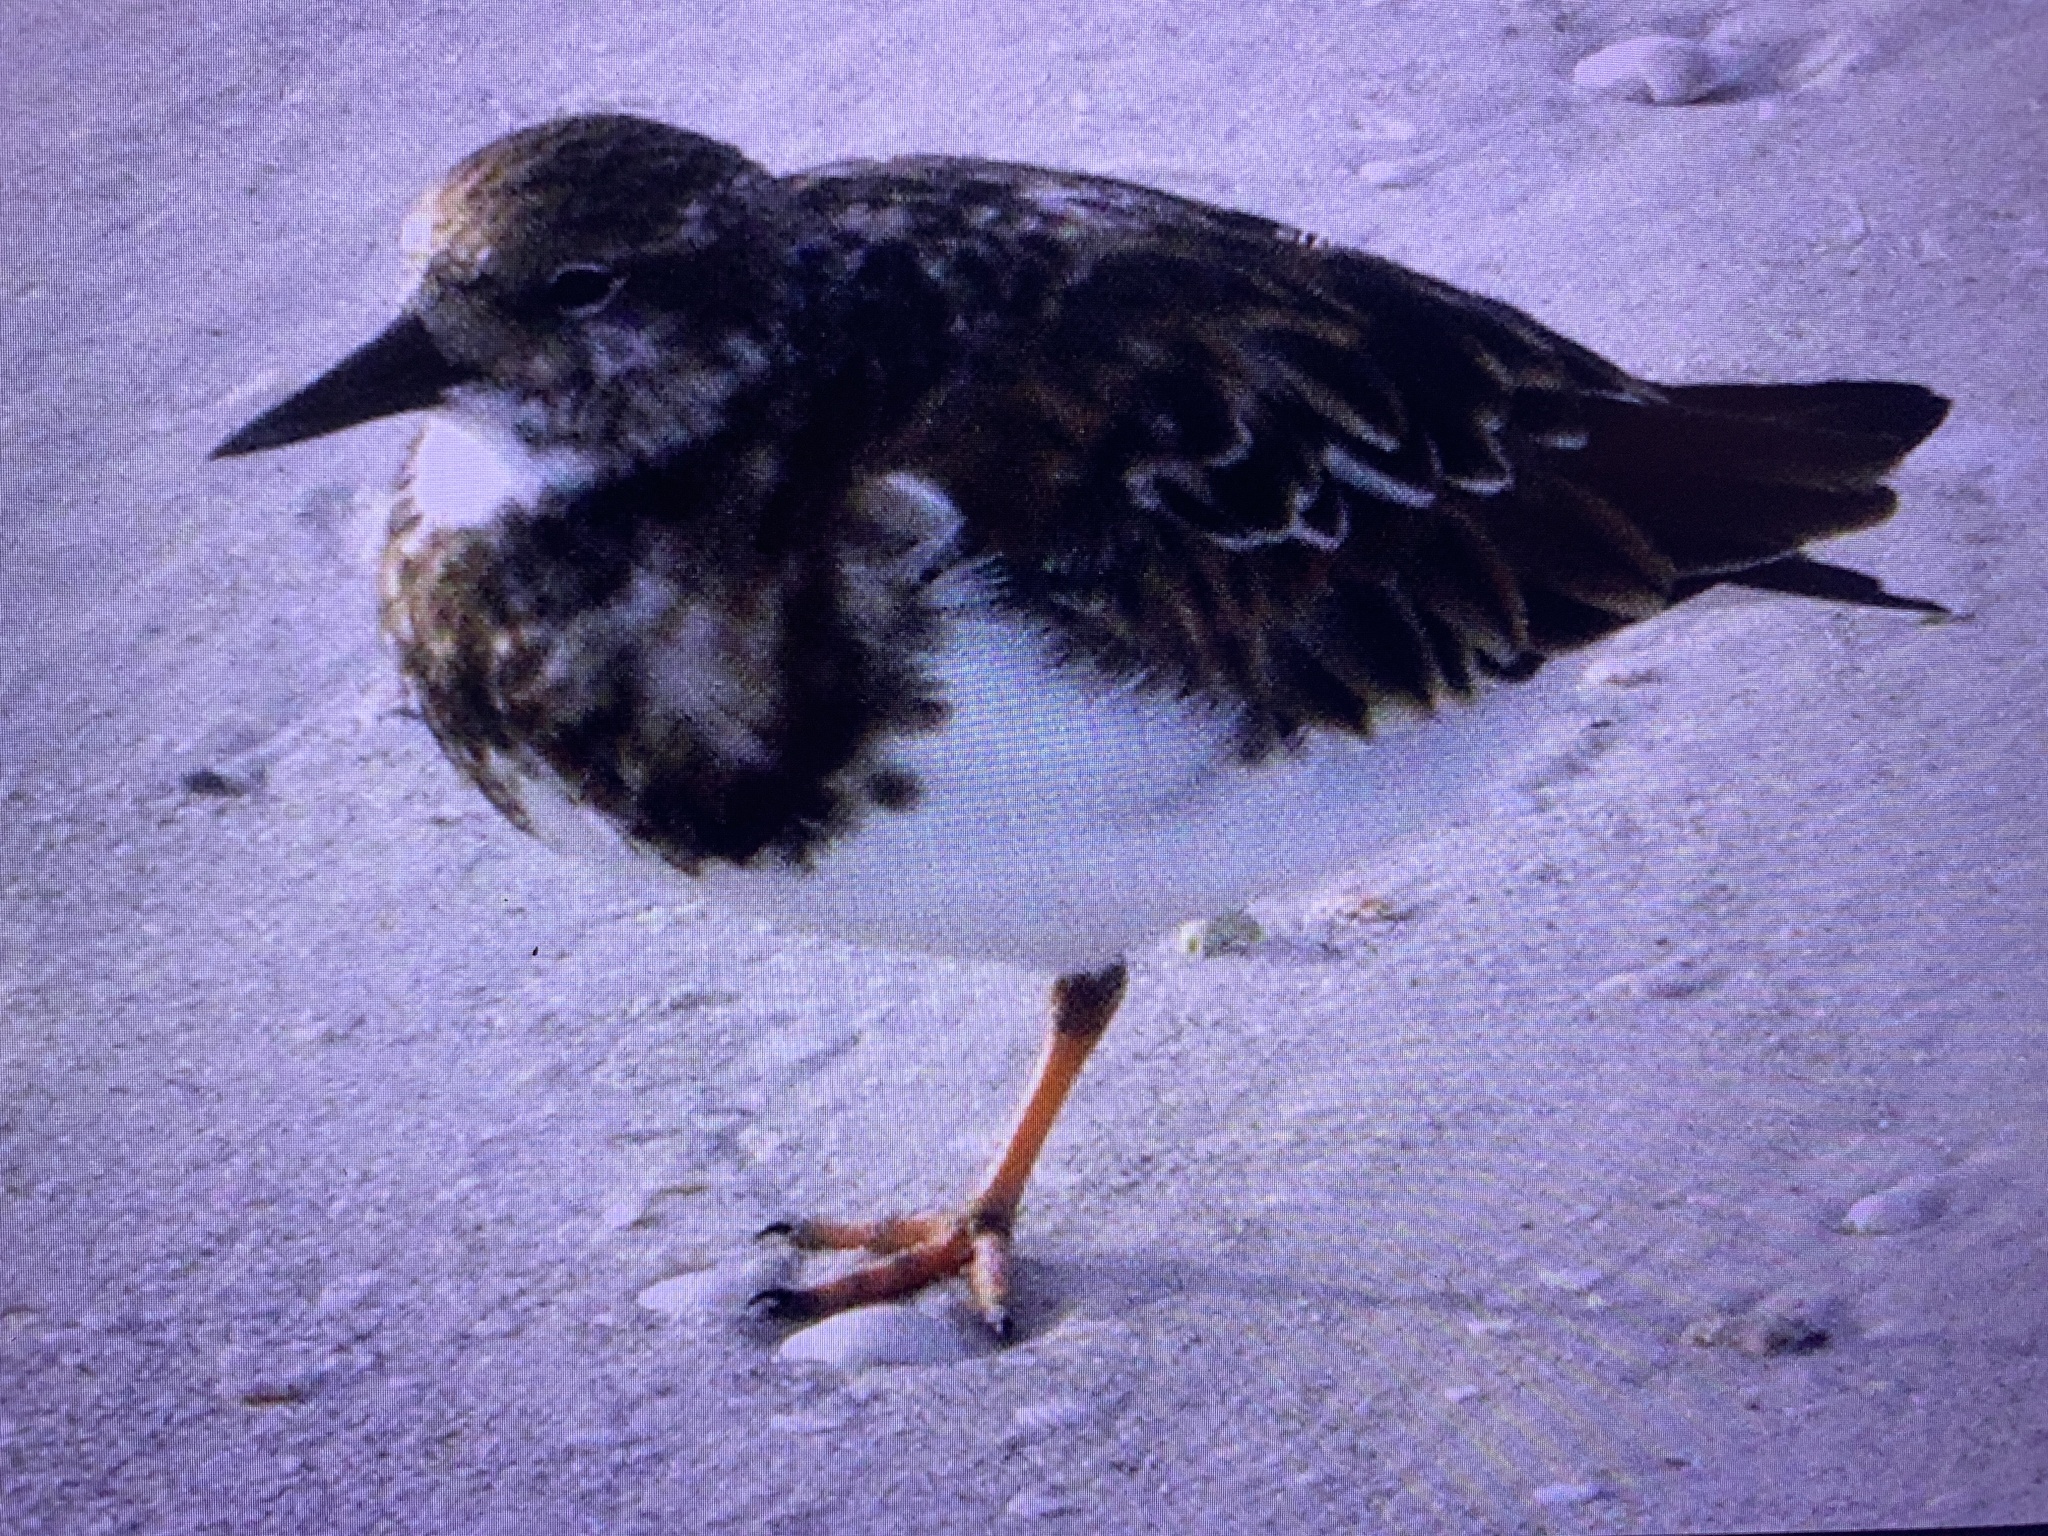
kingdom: Animalia
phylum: Chordata
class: Aves
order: Charadriiformes
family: Scolopacidae
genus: Arenaria
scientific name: Arenaria interpres
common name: Ruddy turnstone
